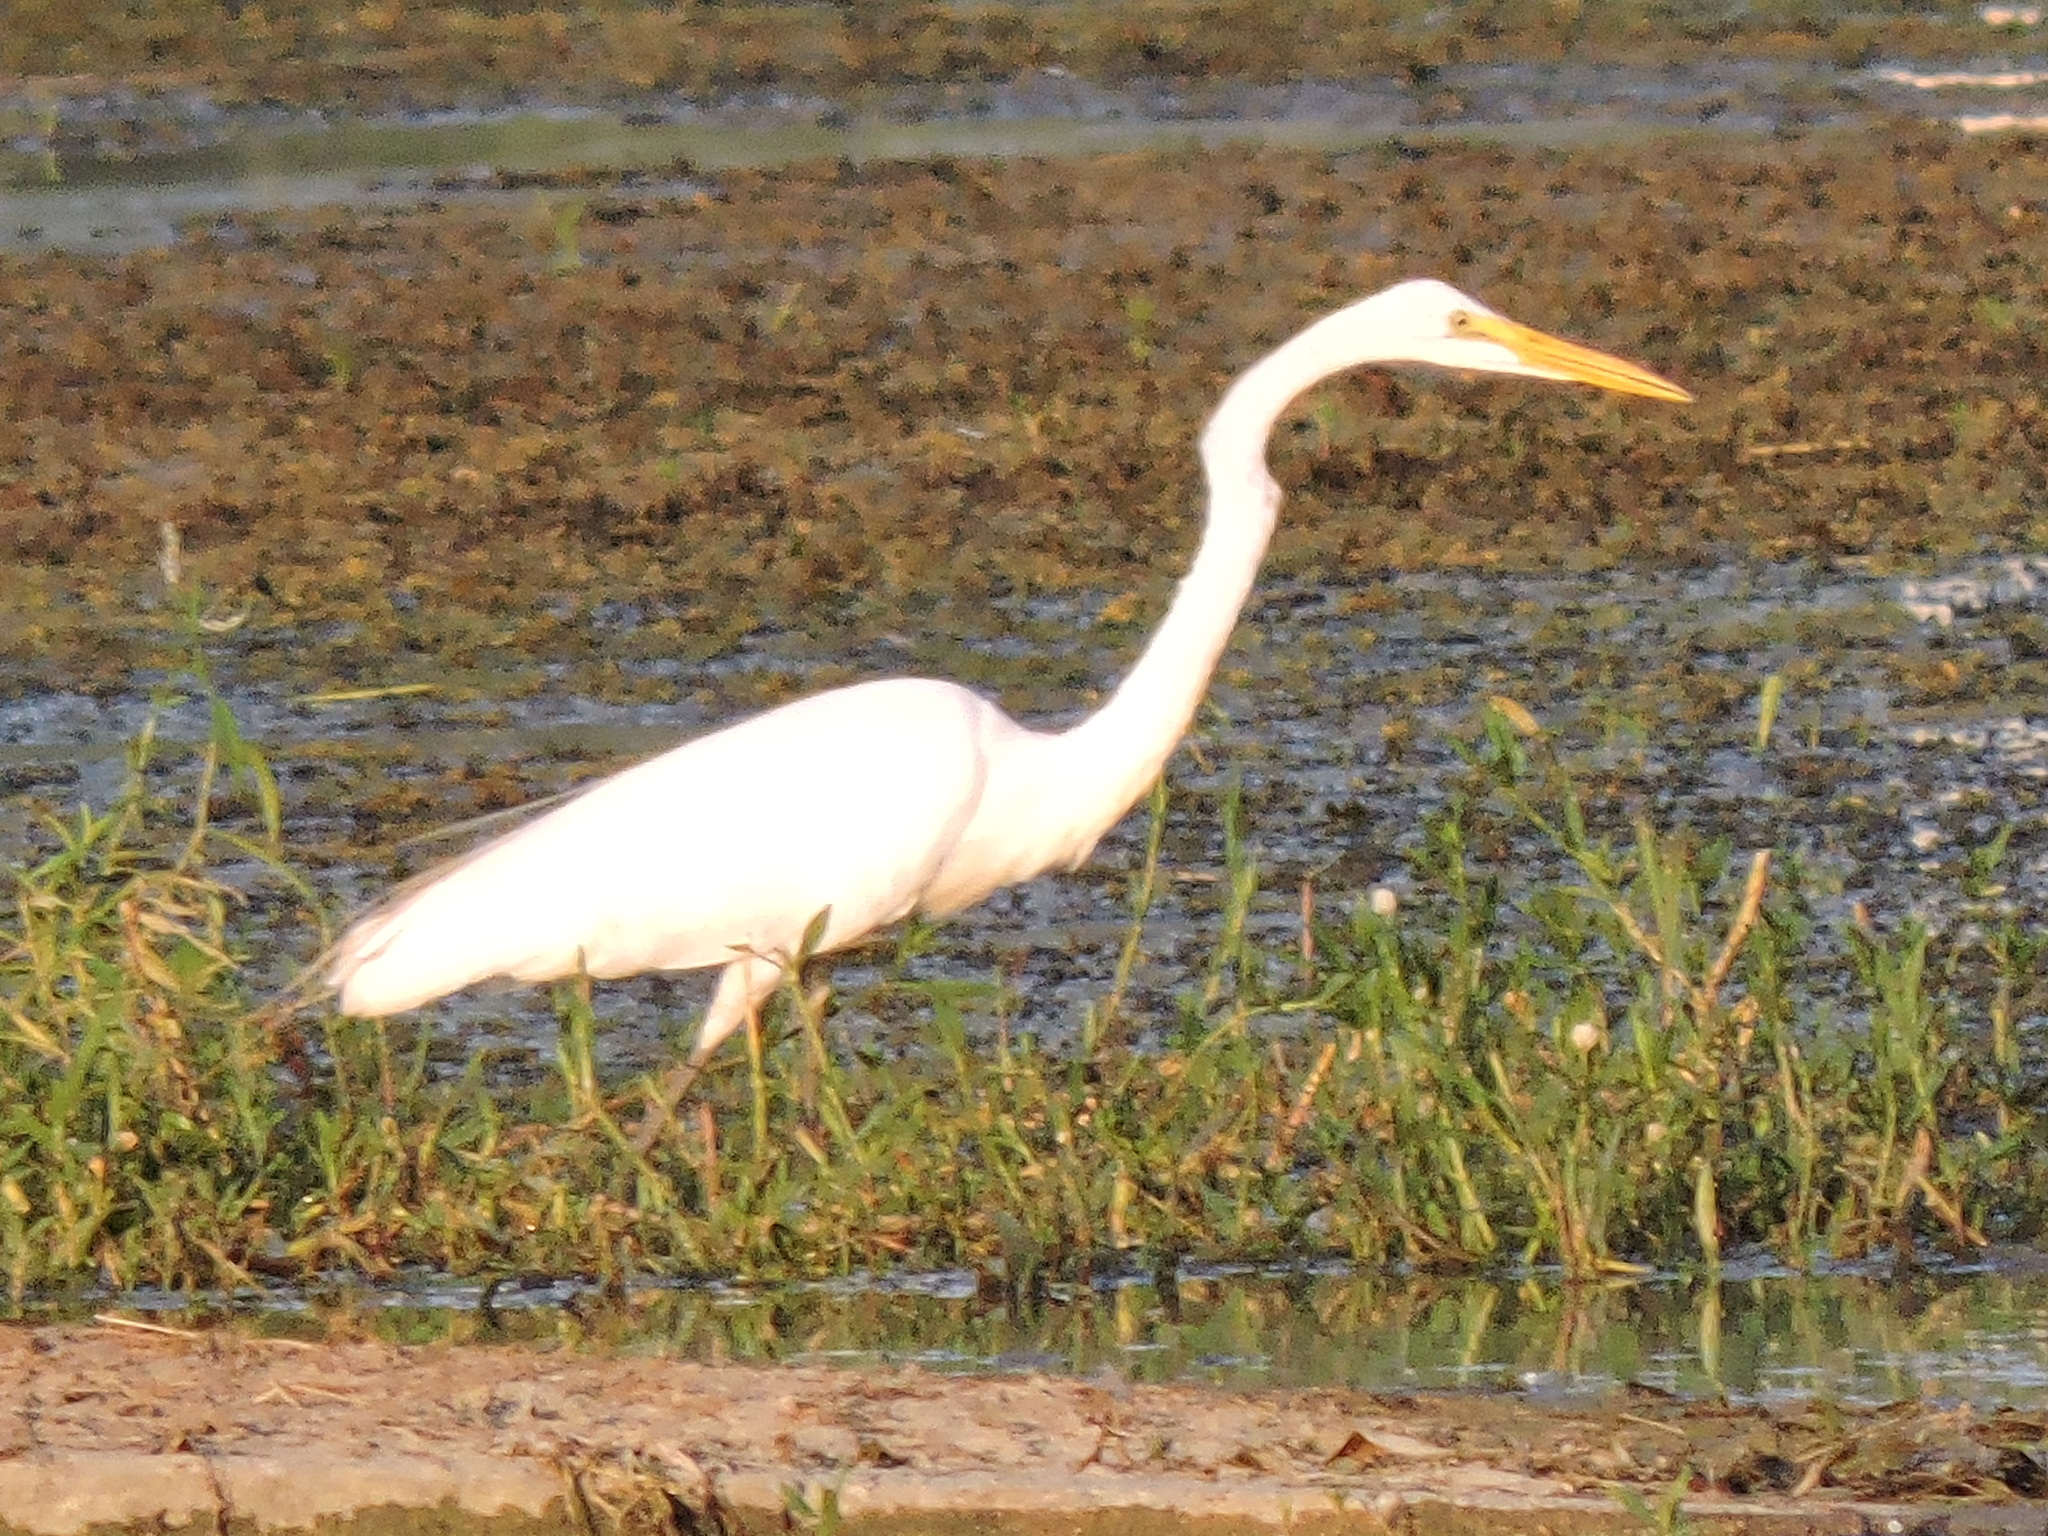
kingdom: Animalia
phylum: Chordata
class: Aves
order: Pelecaniformes
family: Ardeidae
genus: Ardea
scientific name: Ardea alba
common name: Great egret
